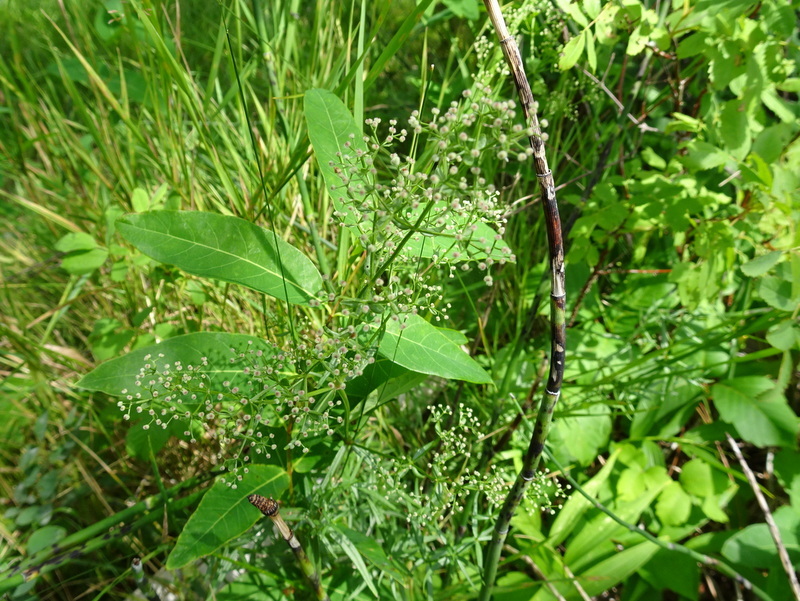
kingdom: Plantae
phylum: Tracheophyta
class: Magnoliopsida
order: Gentianales
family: Rubiaceae
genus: Galium
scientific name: Galium boreale
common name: Northern bedstraw
